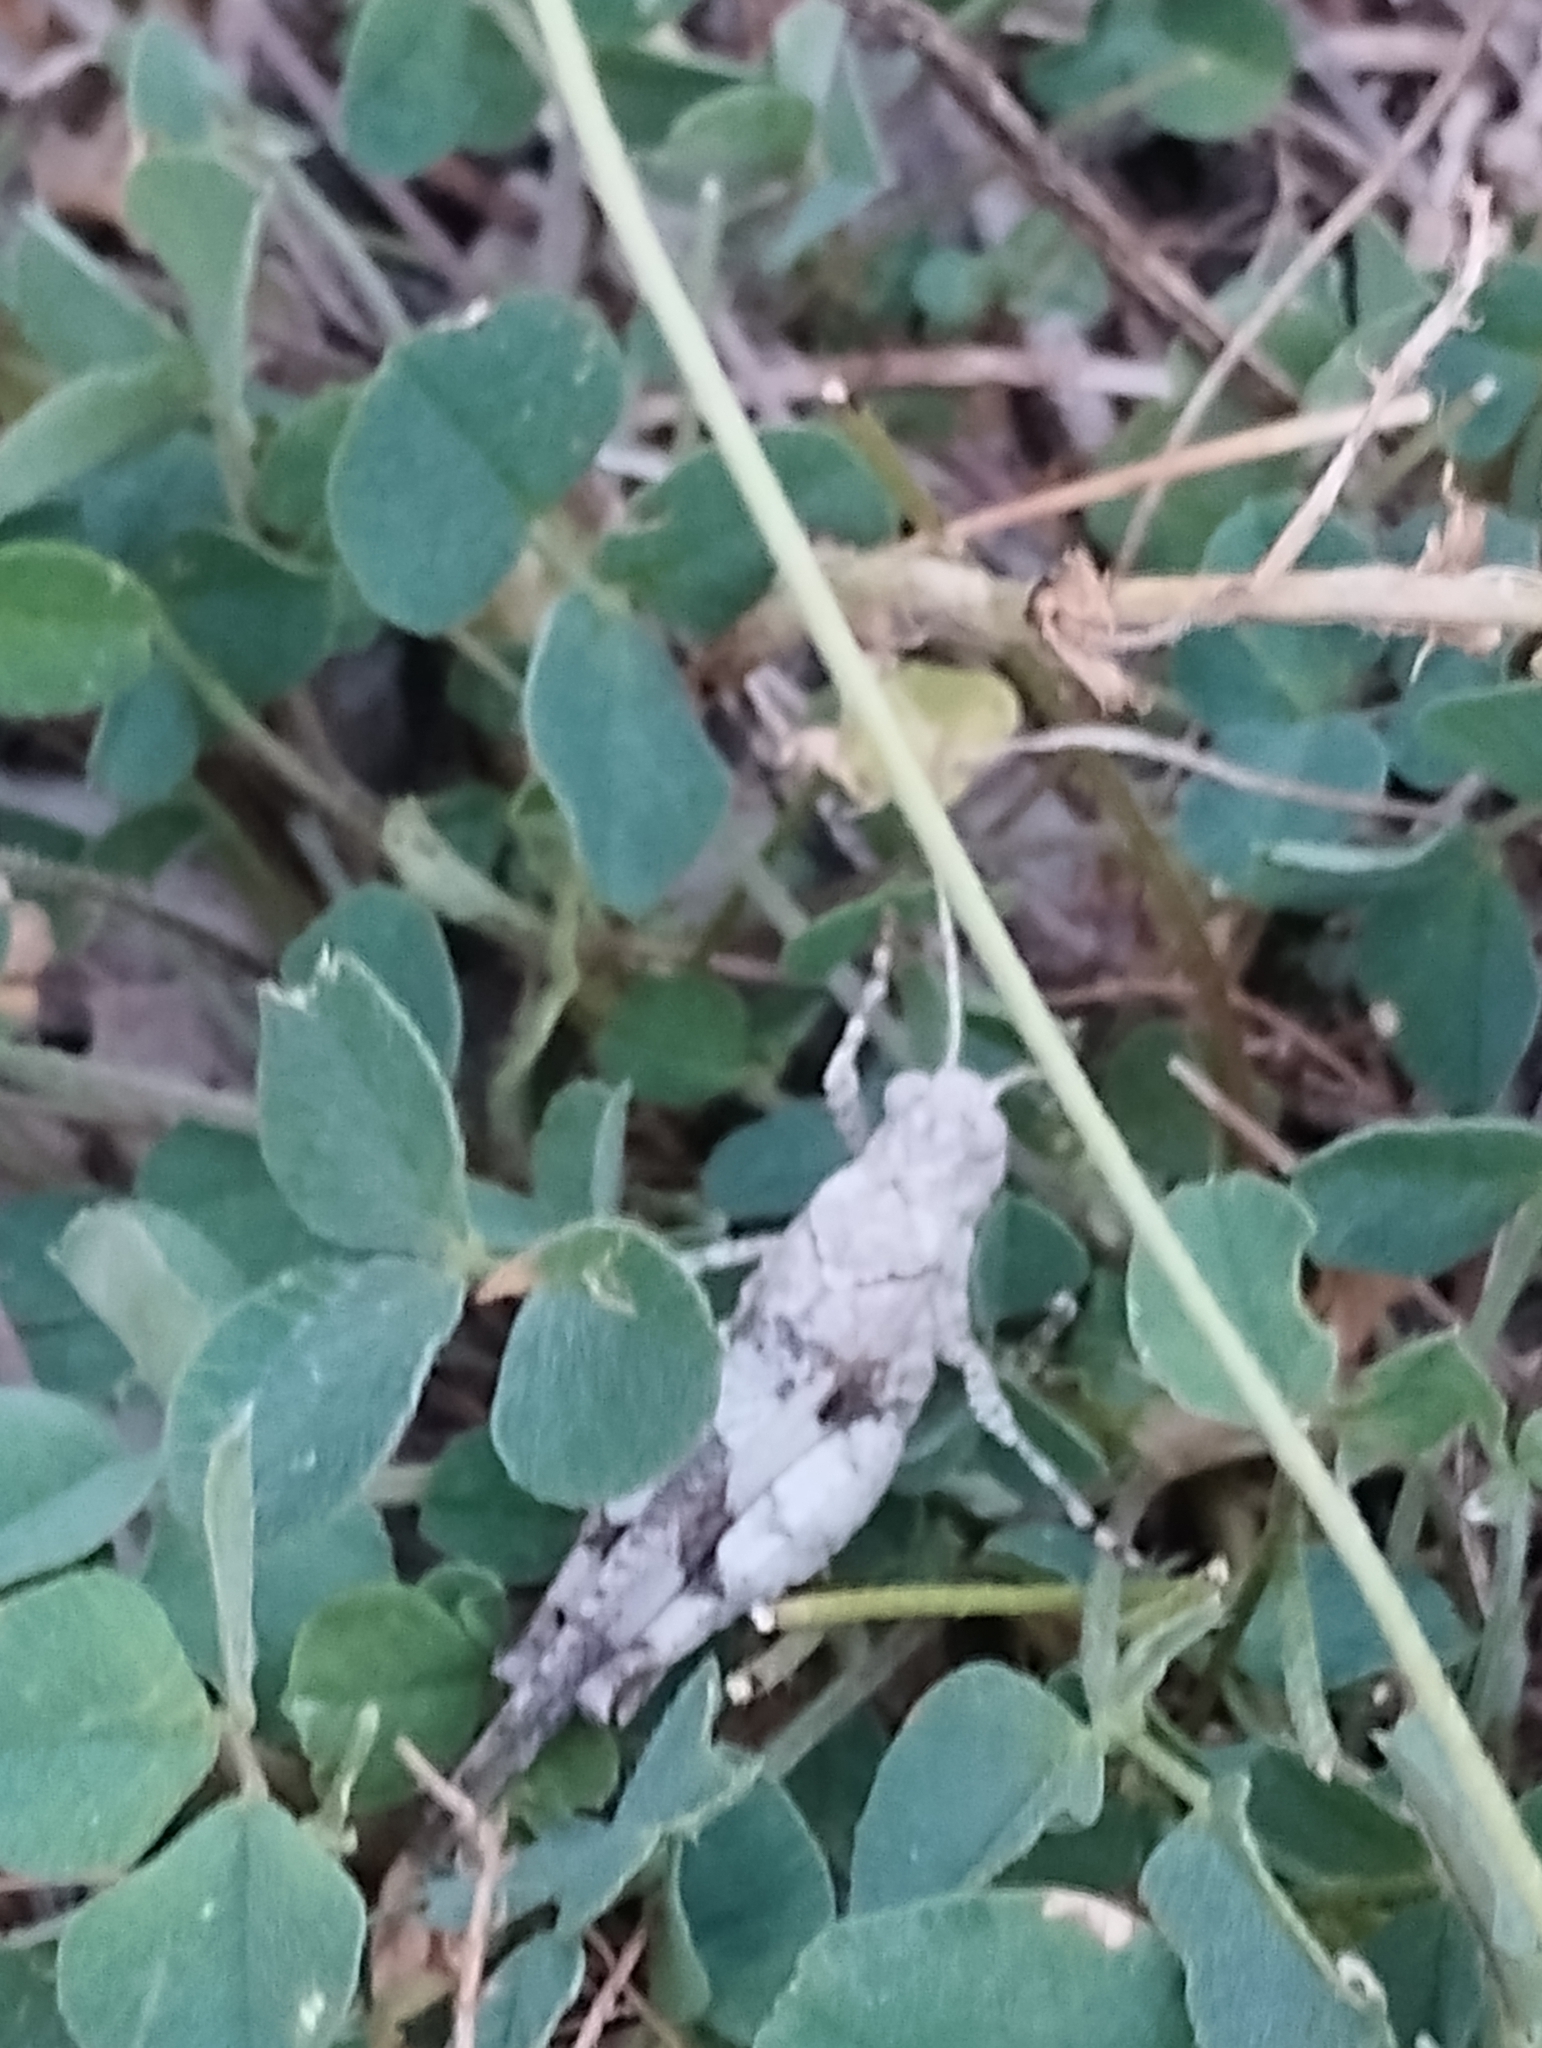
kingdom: Animalia
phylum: Arthropoda
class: Insecta
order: Orthoptera
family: Acrididae
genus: Oedipoda
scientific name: Oedipoda caerulescens
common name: Blue-winged grasshopper
